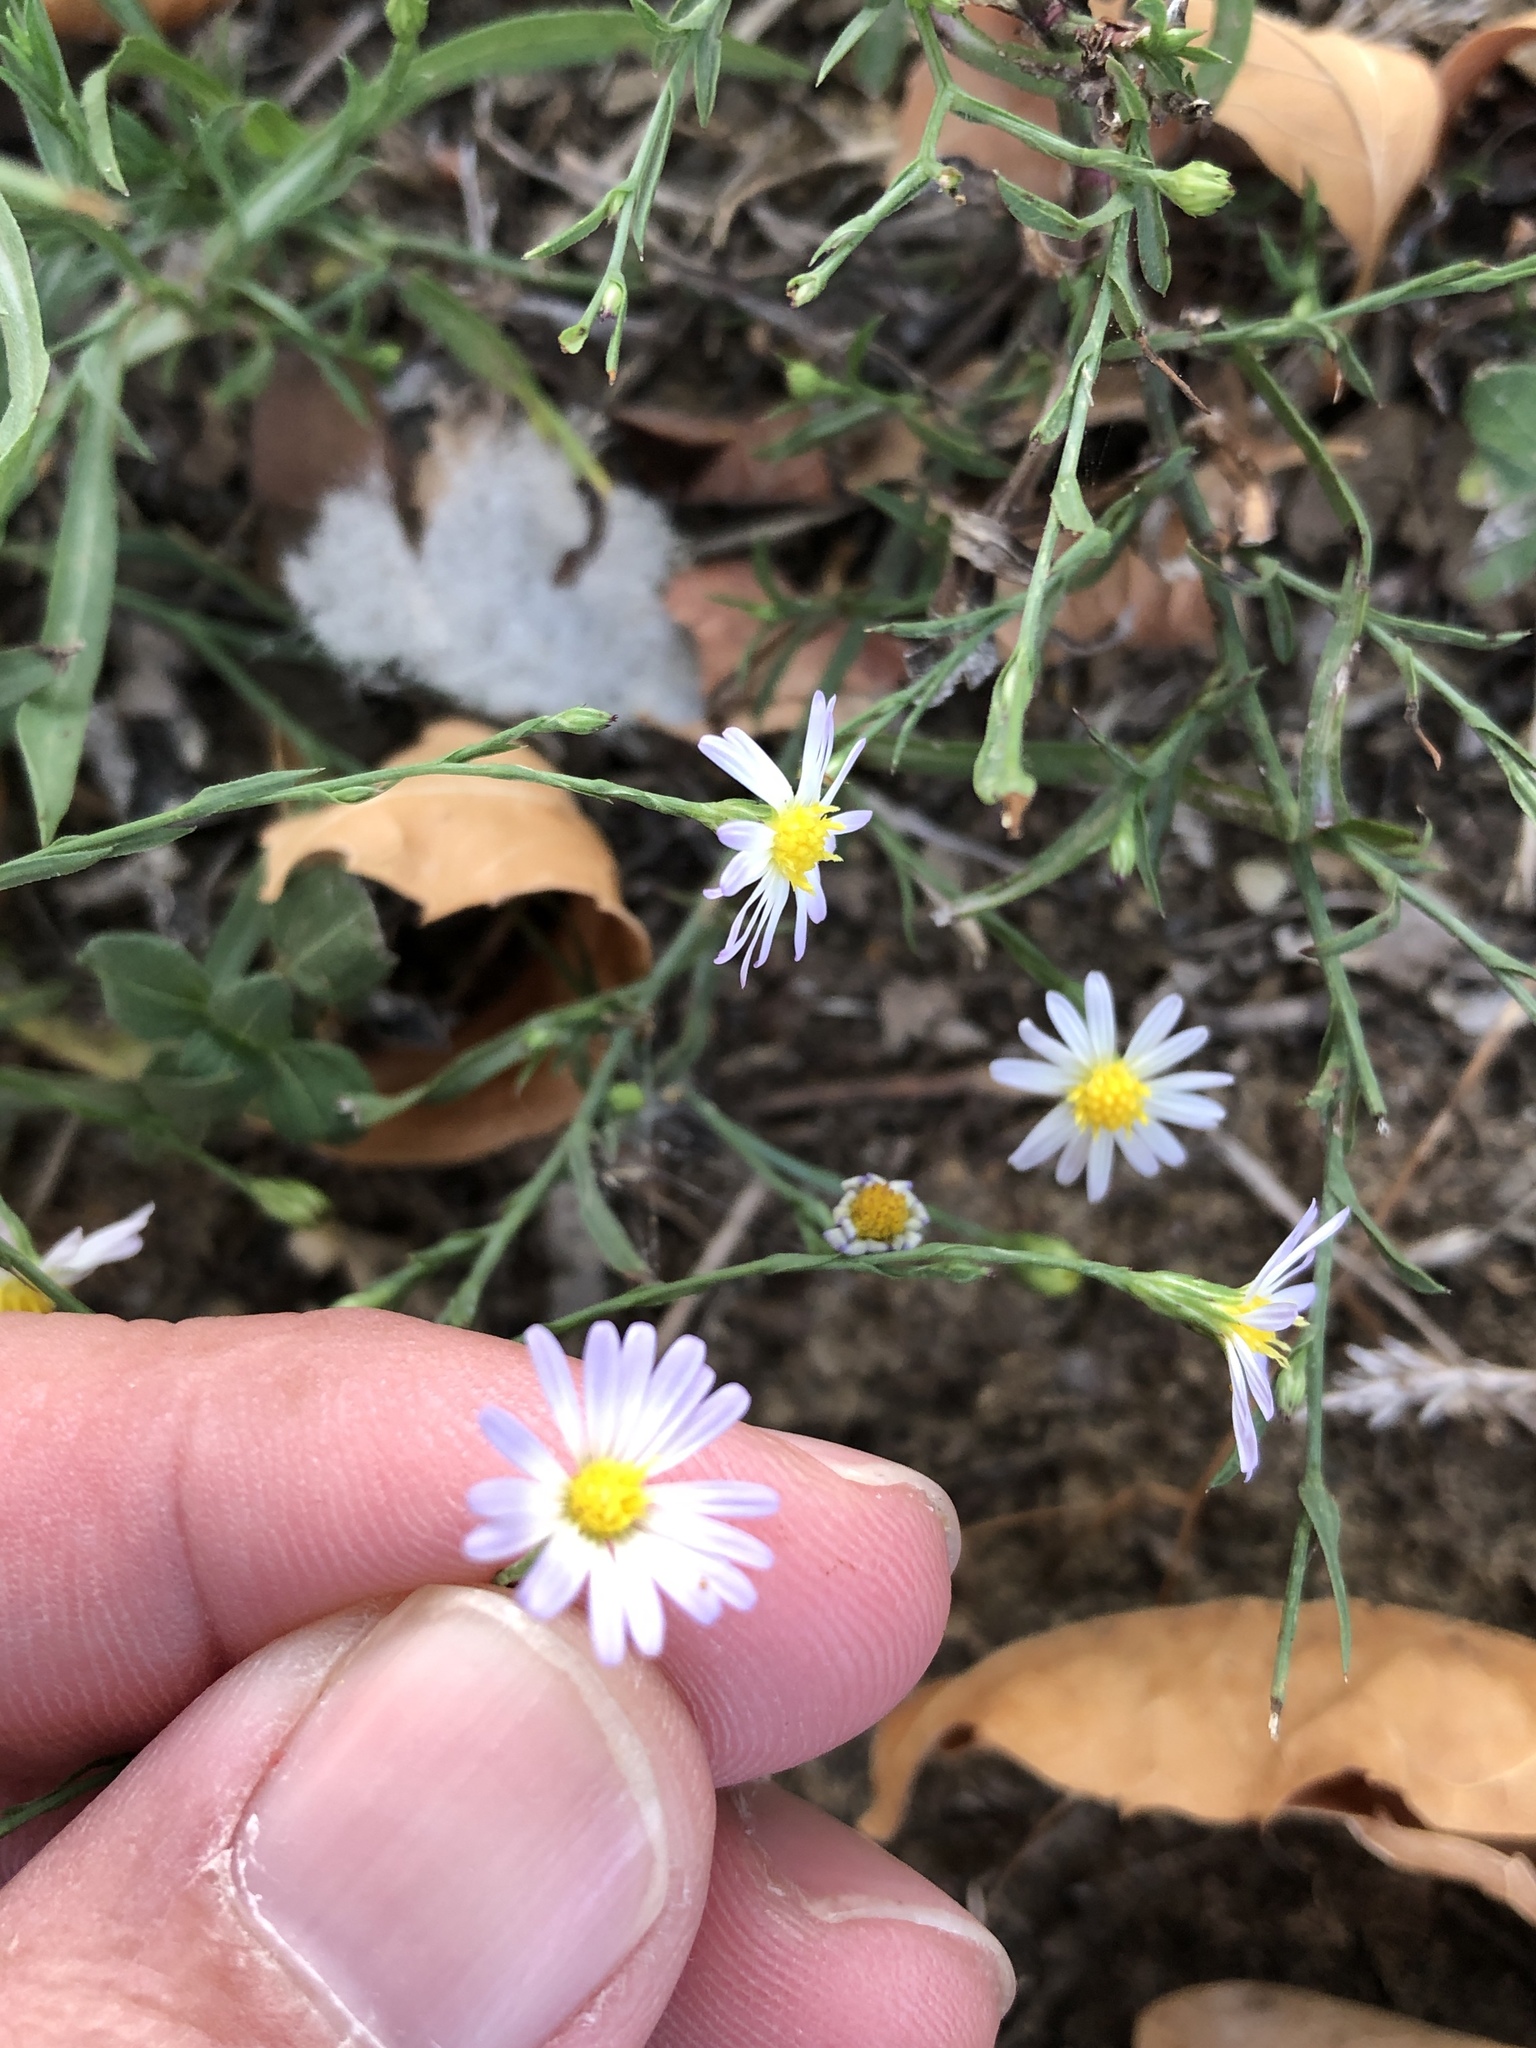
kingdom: Plantae
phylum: Tracheophyta
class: Magnoliopsida
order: Asterales
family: Asteraceae
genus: Symphyotrichum
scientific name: Symphyotrichum divaricatum
